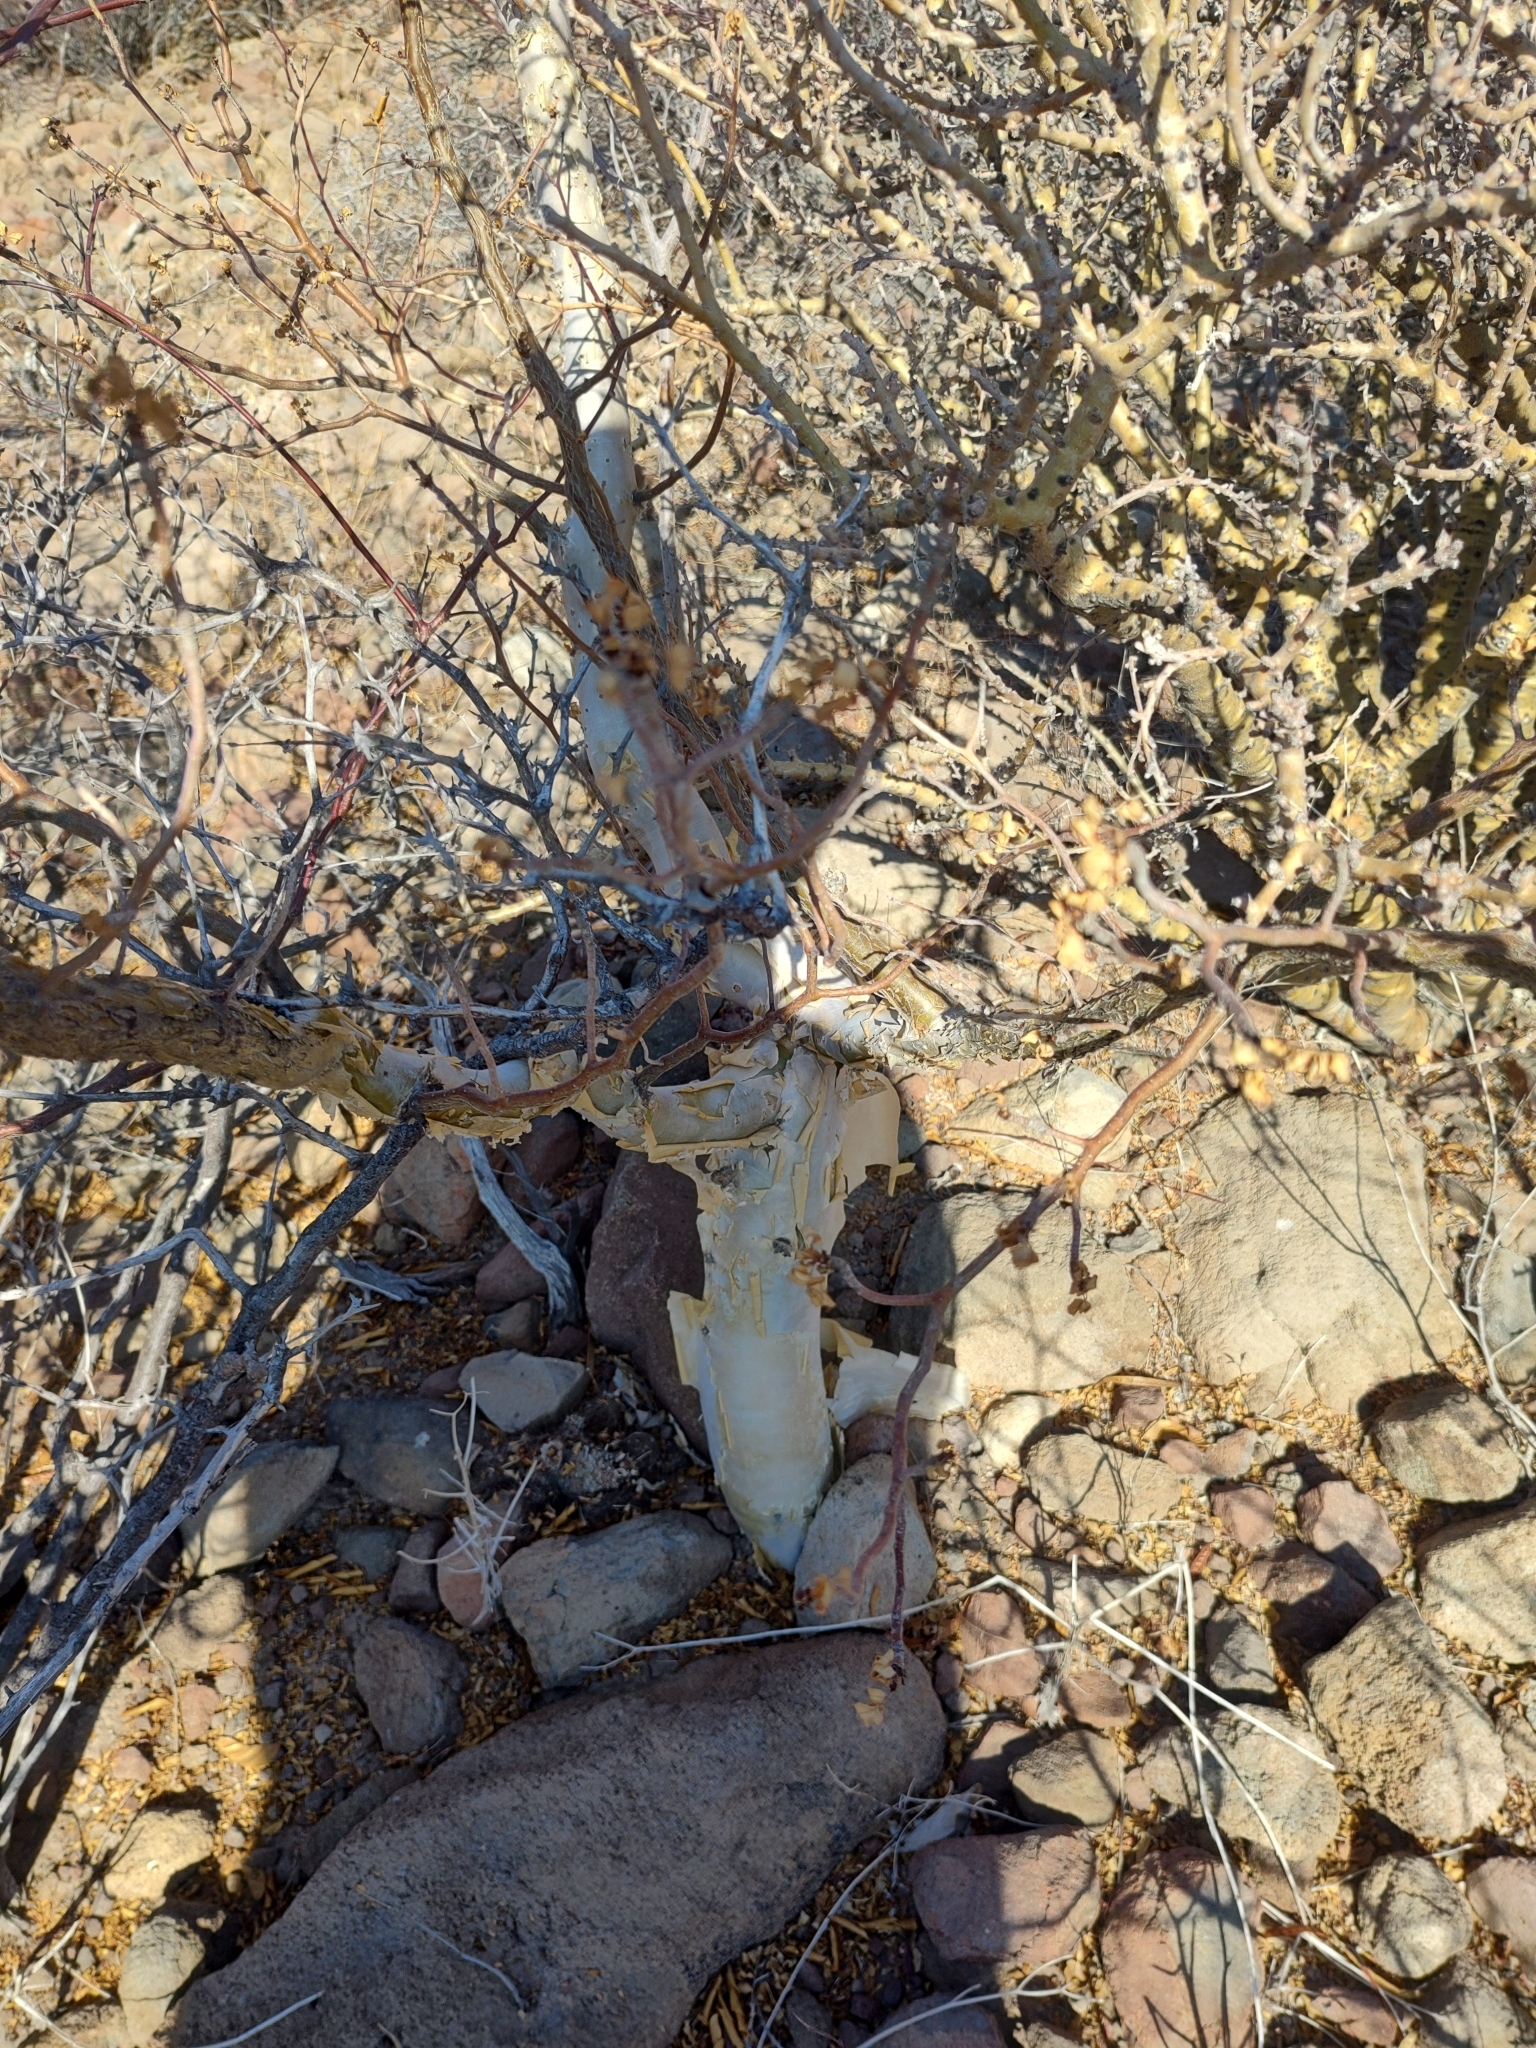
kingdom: Plantae
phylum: Tracheophyta
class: Magnoliopsida
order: Sapindales
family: Burseraceae
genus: Bursera
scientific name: Bursera fagaroides
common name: Elephant tree
